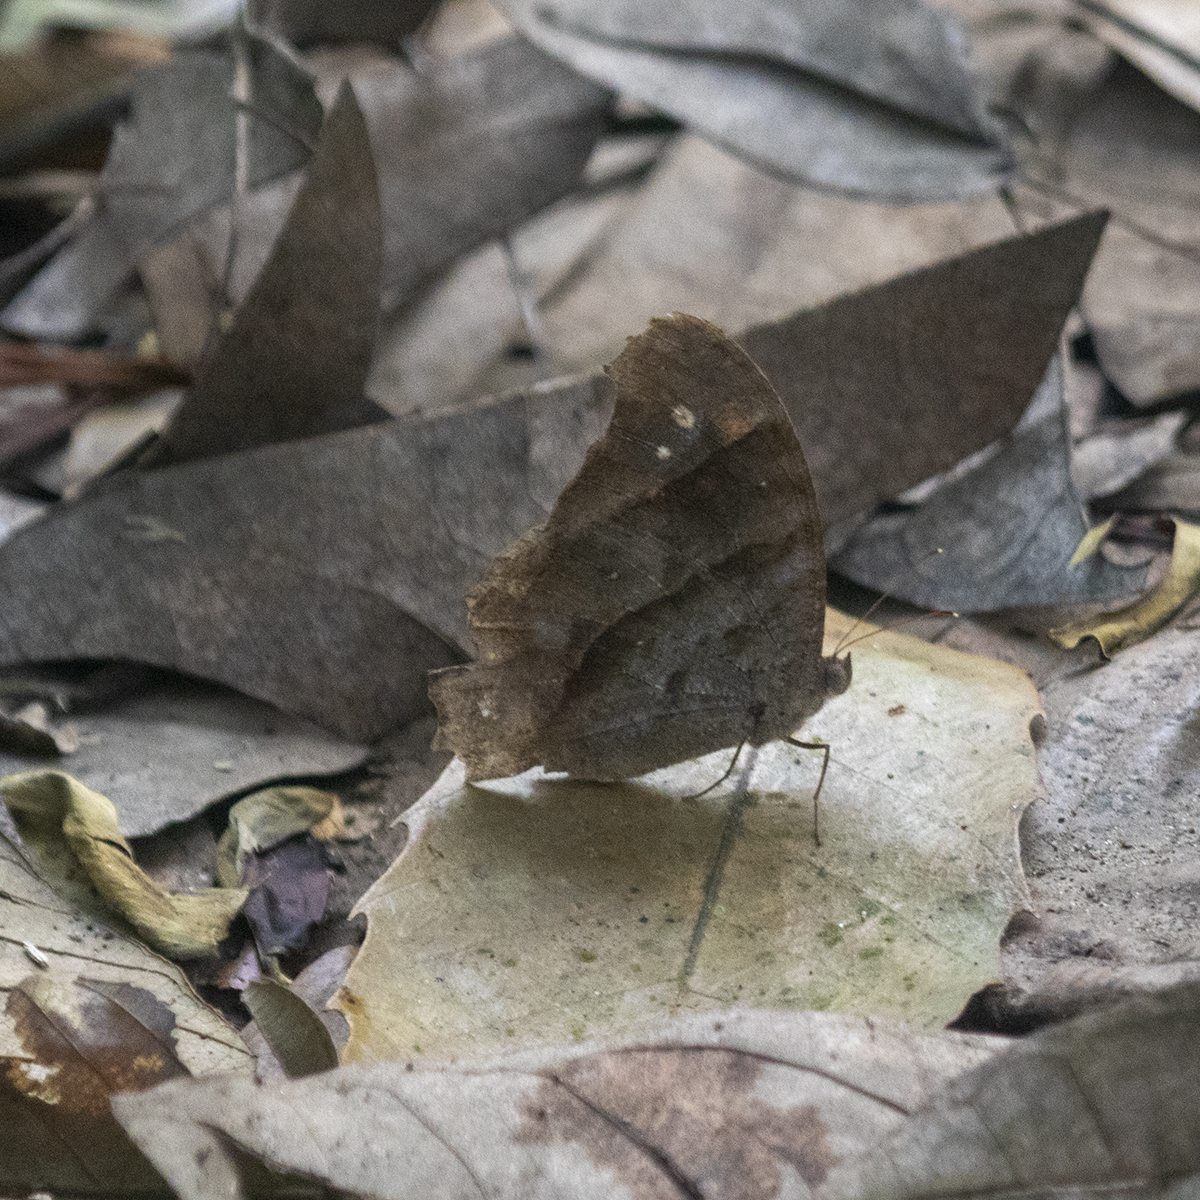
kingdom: Animalia
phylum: Arthropoda
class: Insecta
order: Lepidoptera
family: Nymphalidae
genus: Melanitis
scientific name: Melanitis leda
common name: Twilight brown
